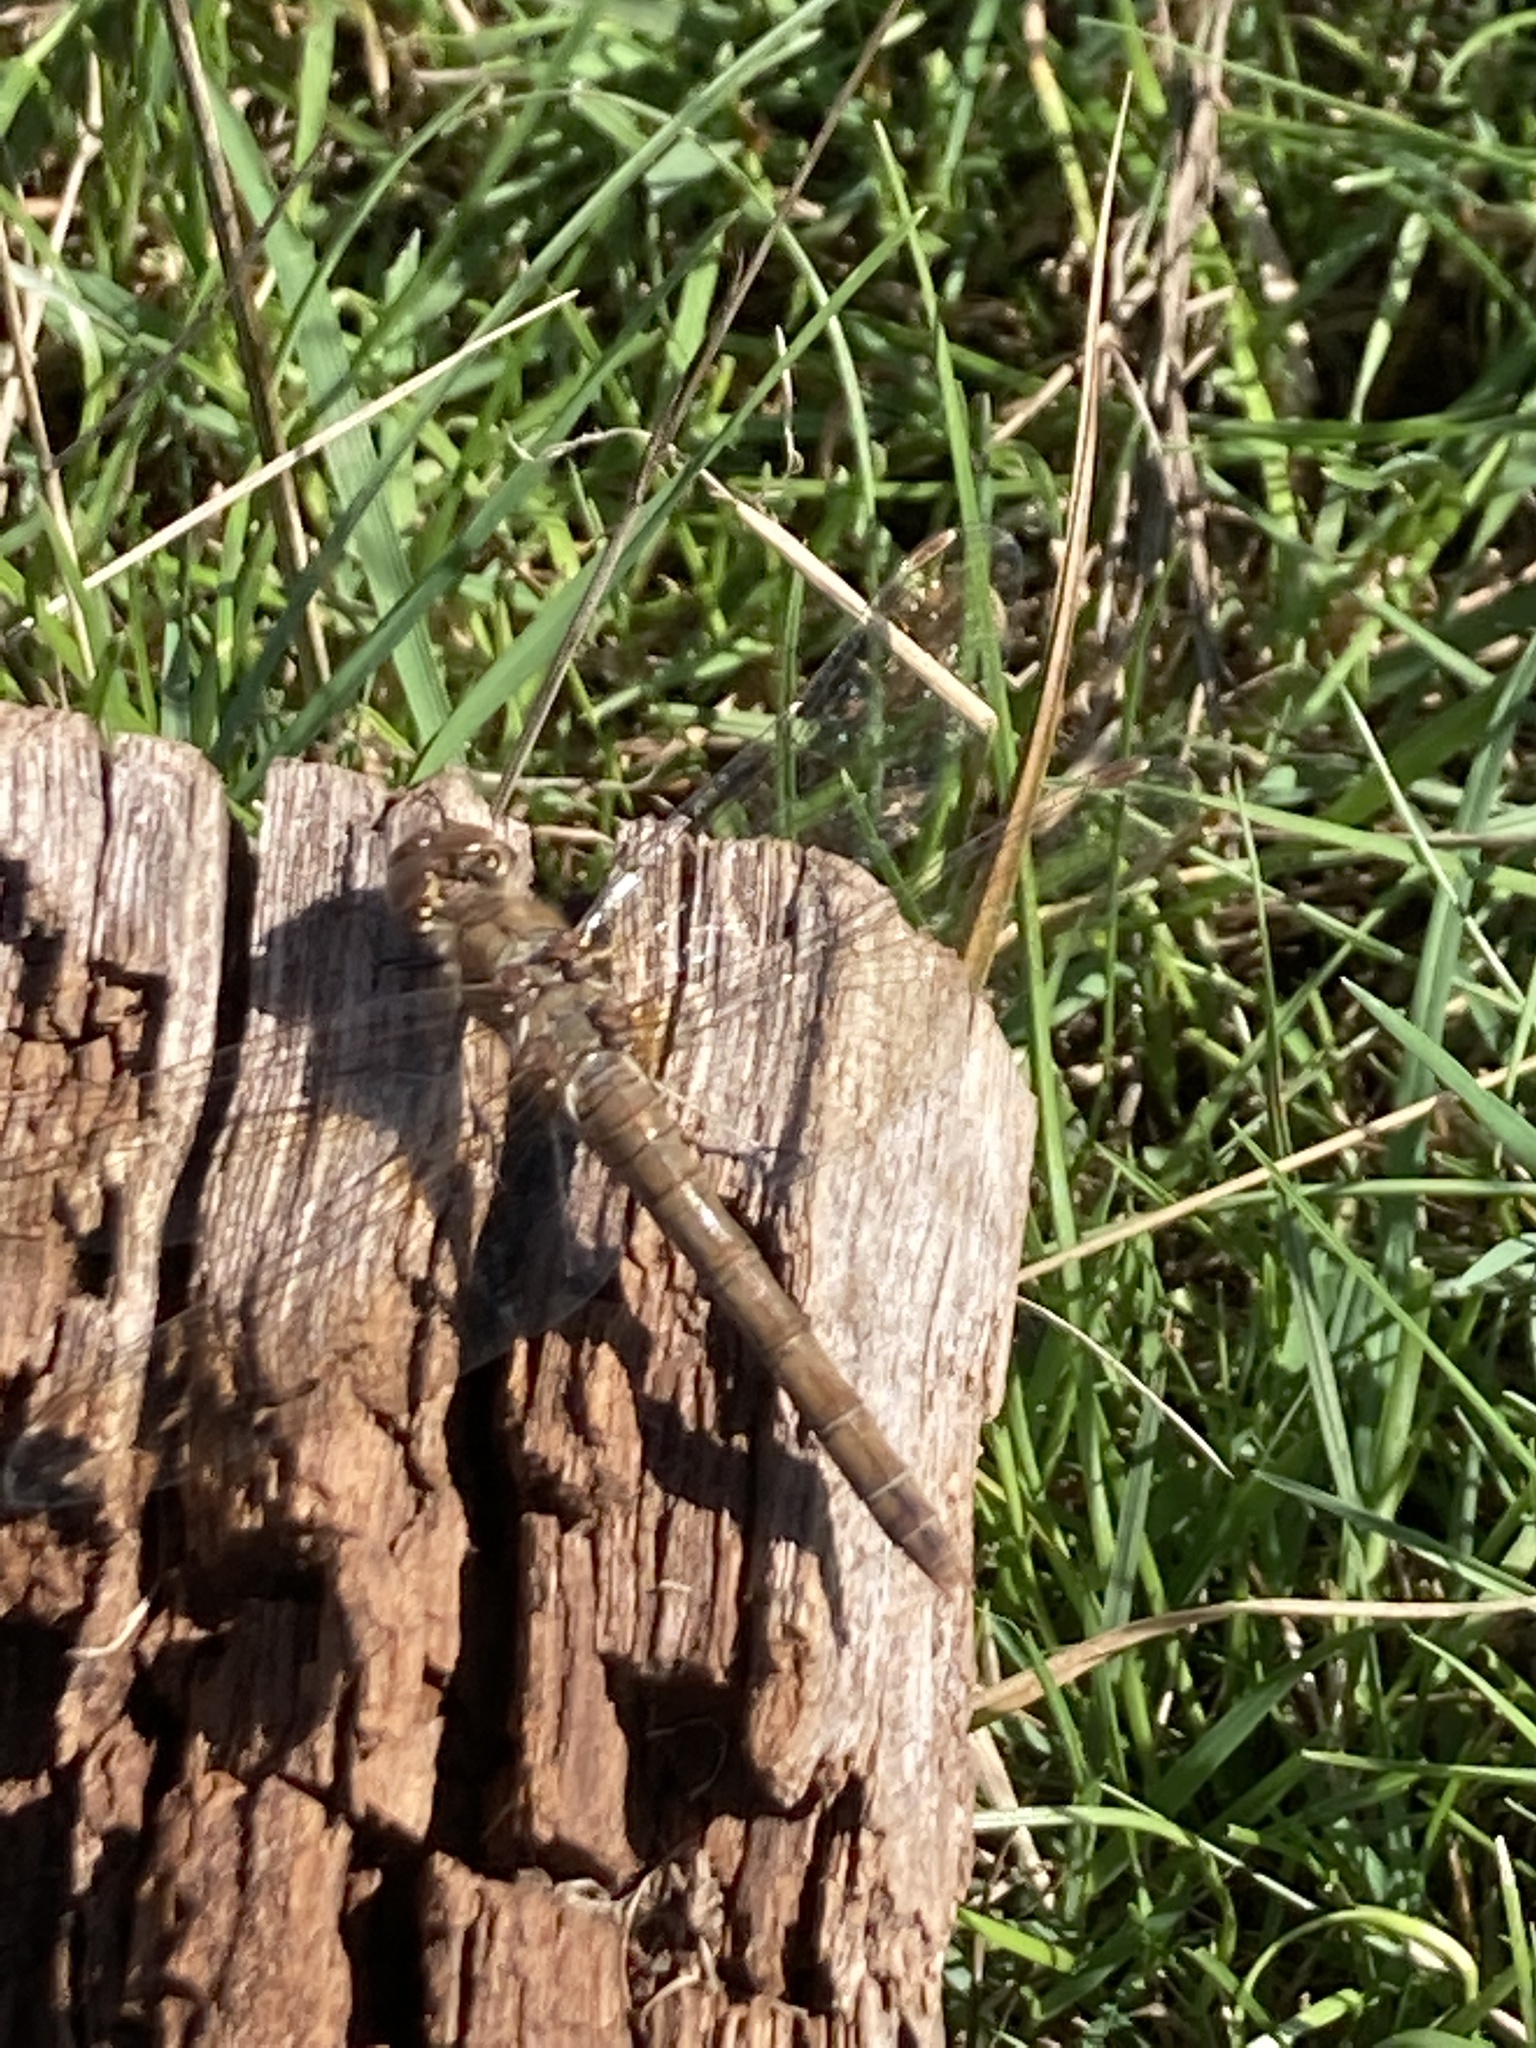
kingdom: Animalia
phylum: Arthropoda
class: Insecta
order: Odonata
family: Libellulidae
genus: Sympetrum
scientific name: Sympetrum sanguineum
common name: Ruddy darter
